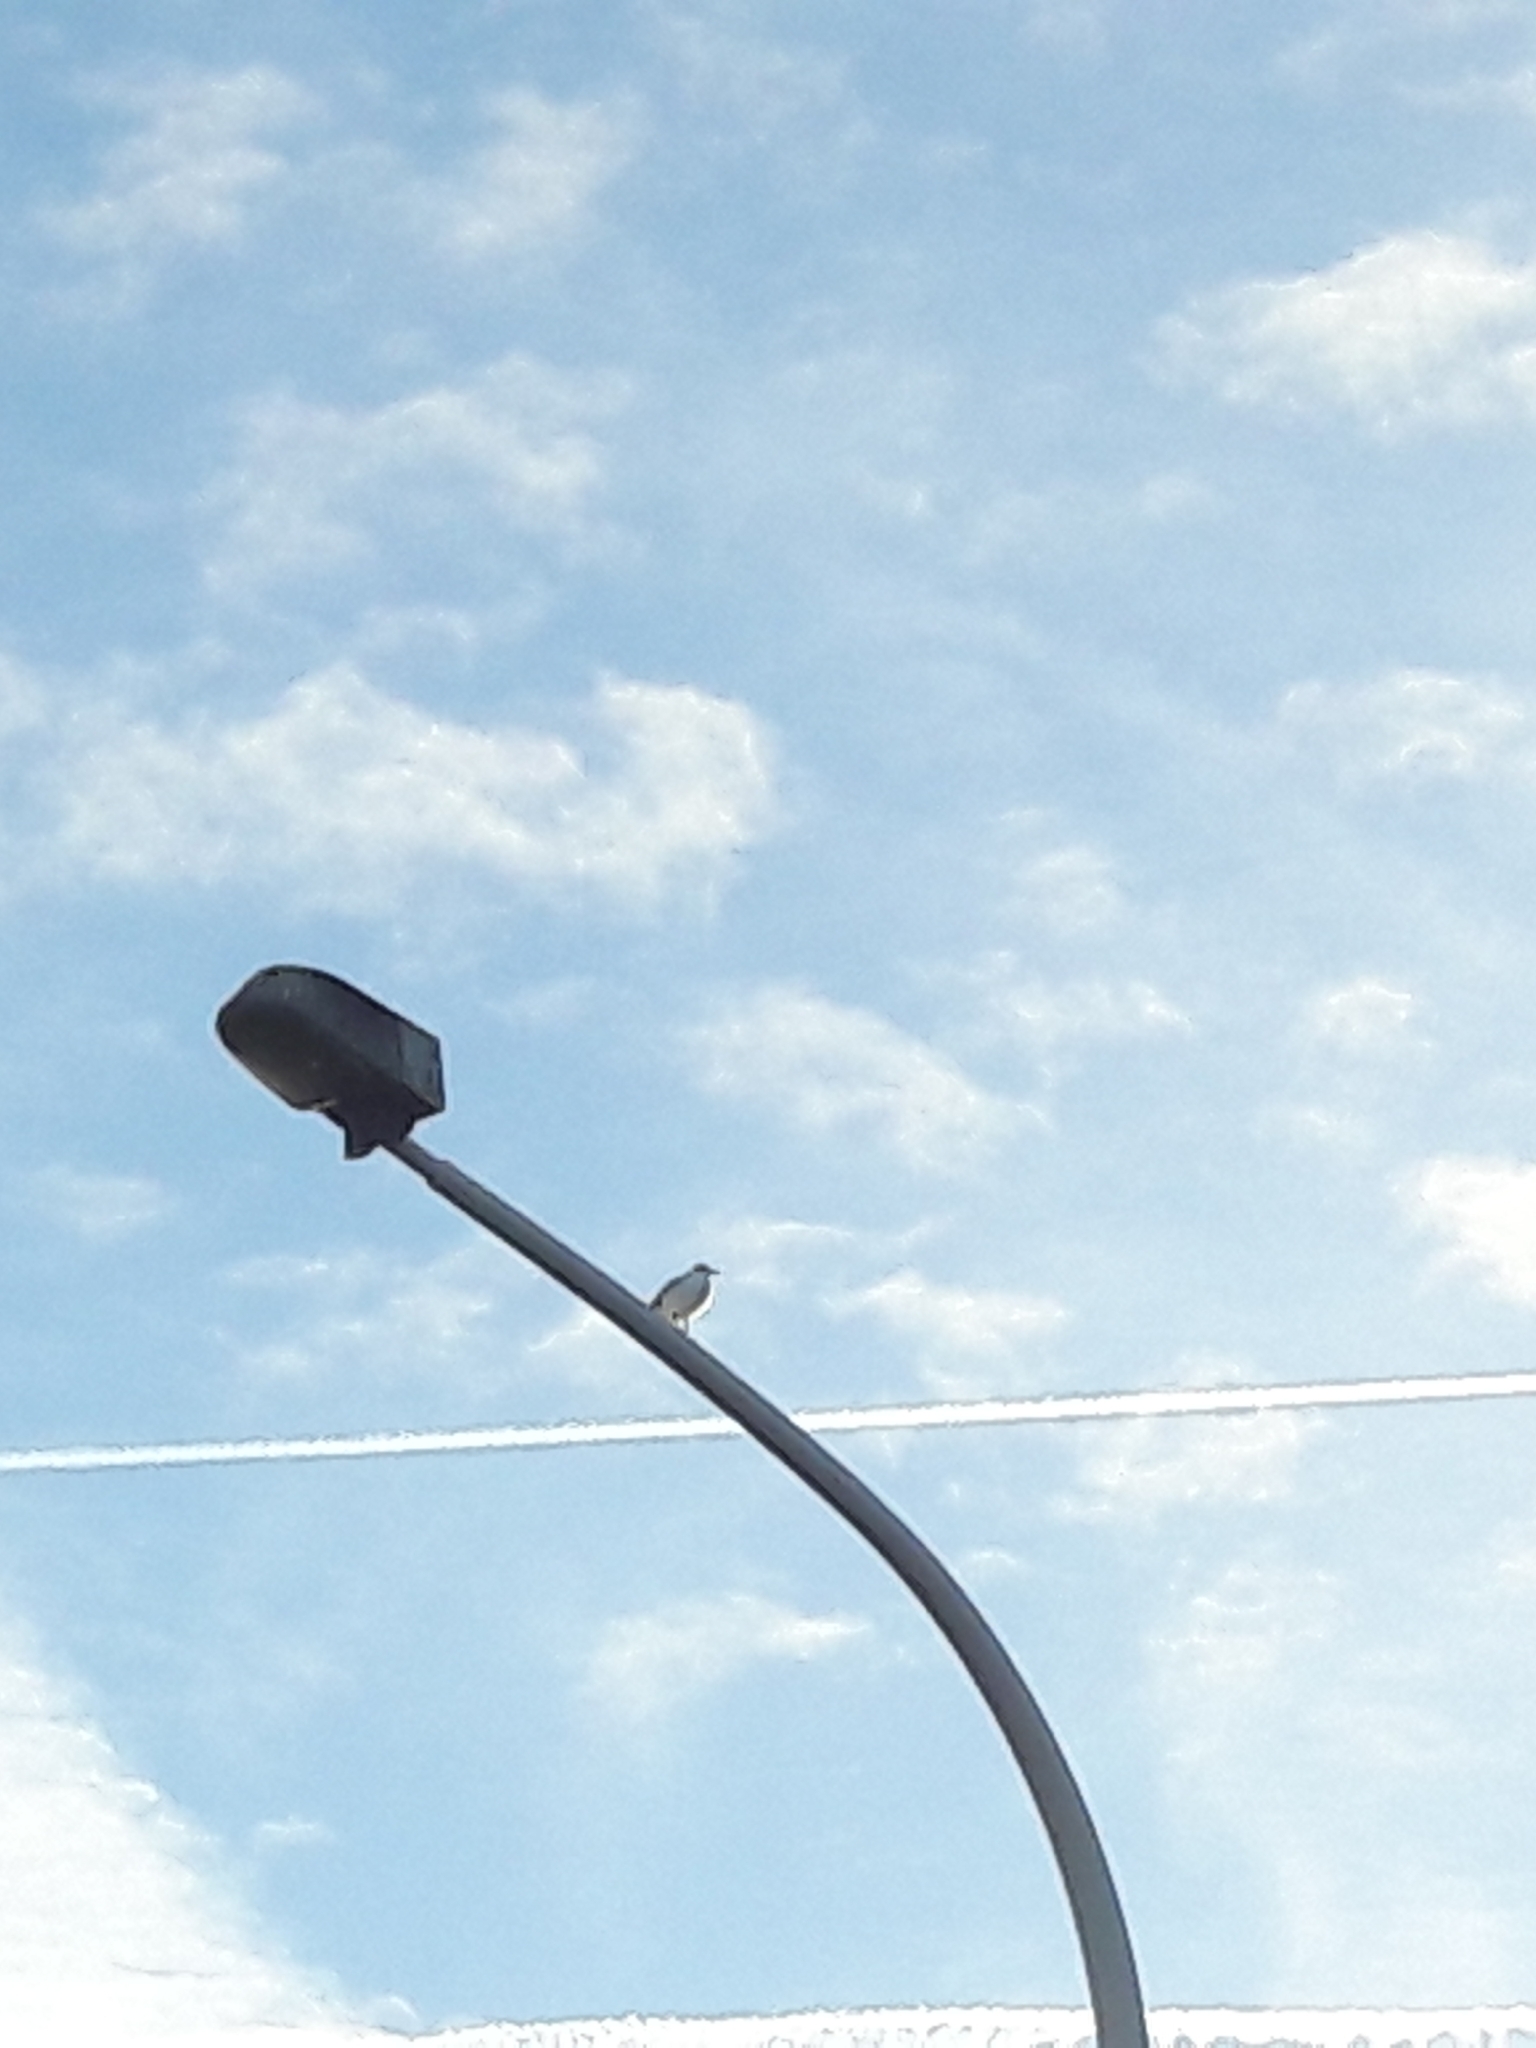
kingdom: Animalia
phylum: Chordata
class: Aves
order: Charadriiformes
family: Laridae
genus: Chroicocephalus
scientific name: Chroicocephalus ridibundus
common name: Black-headed gull
